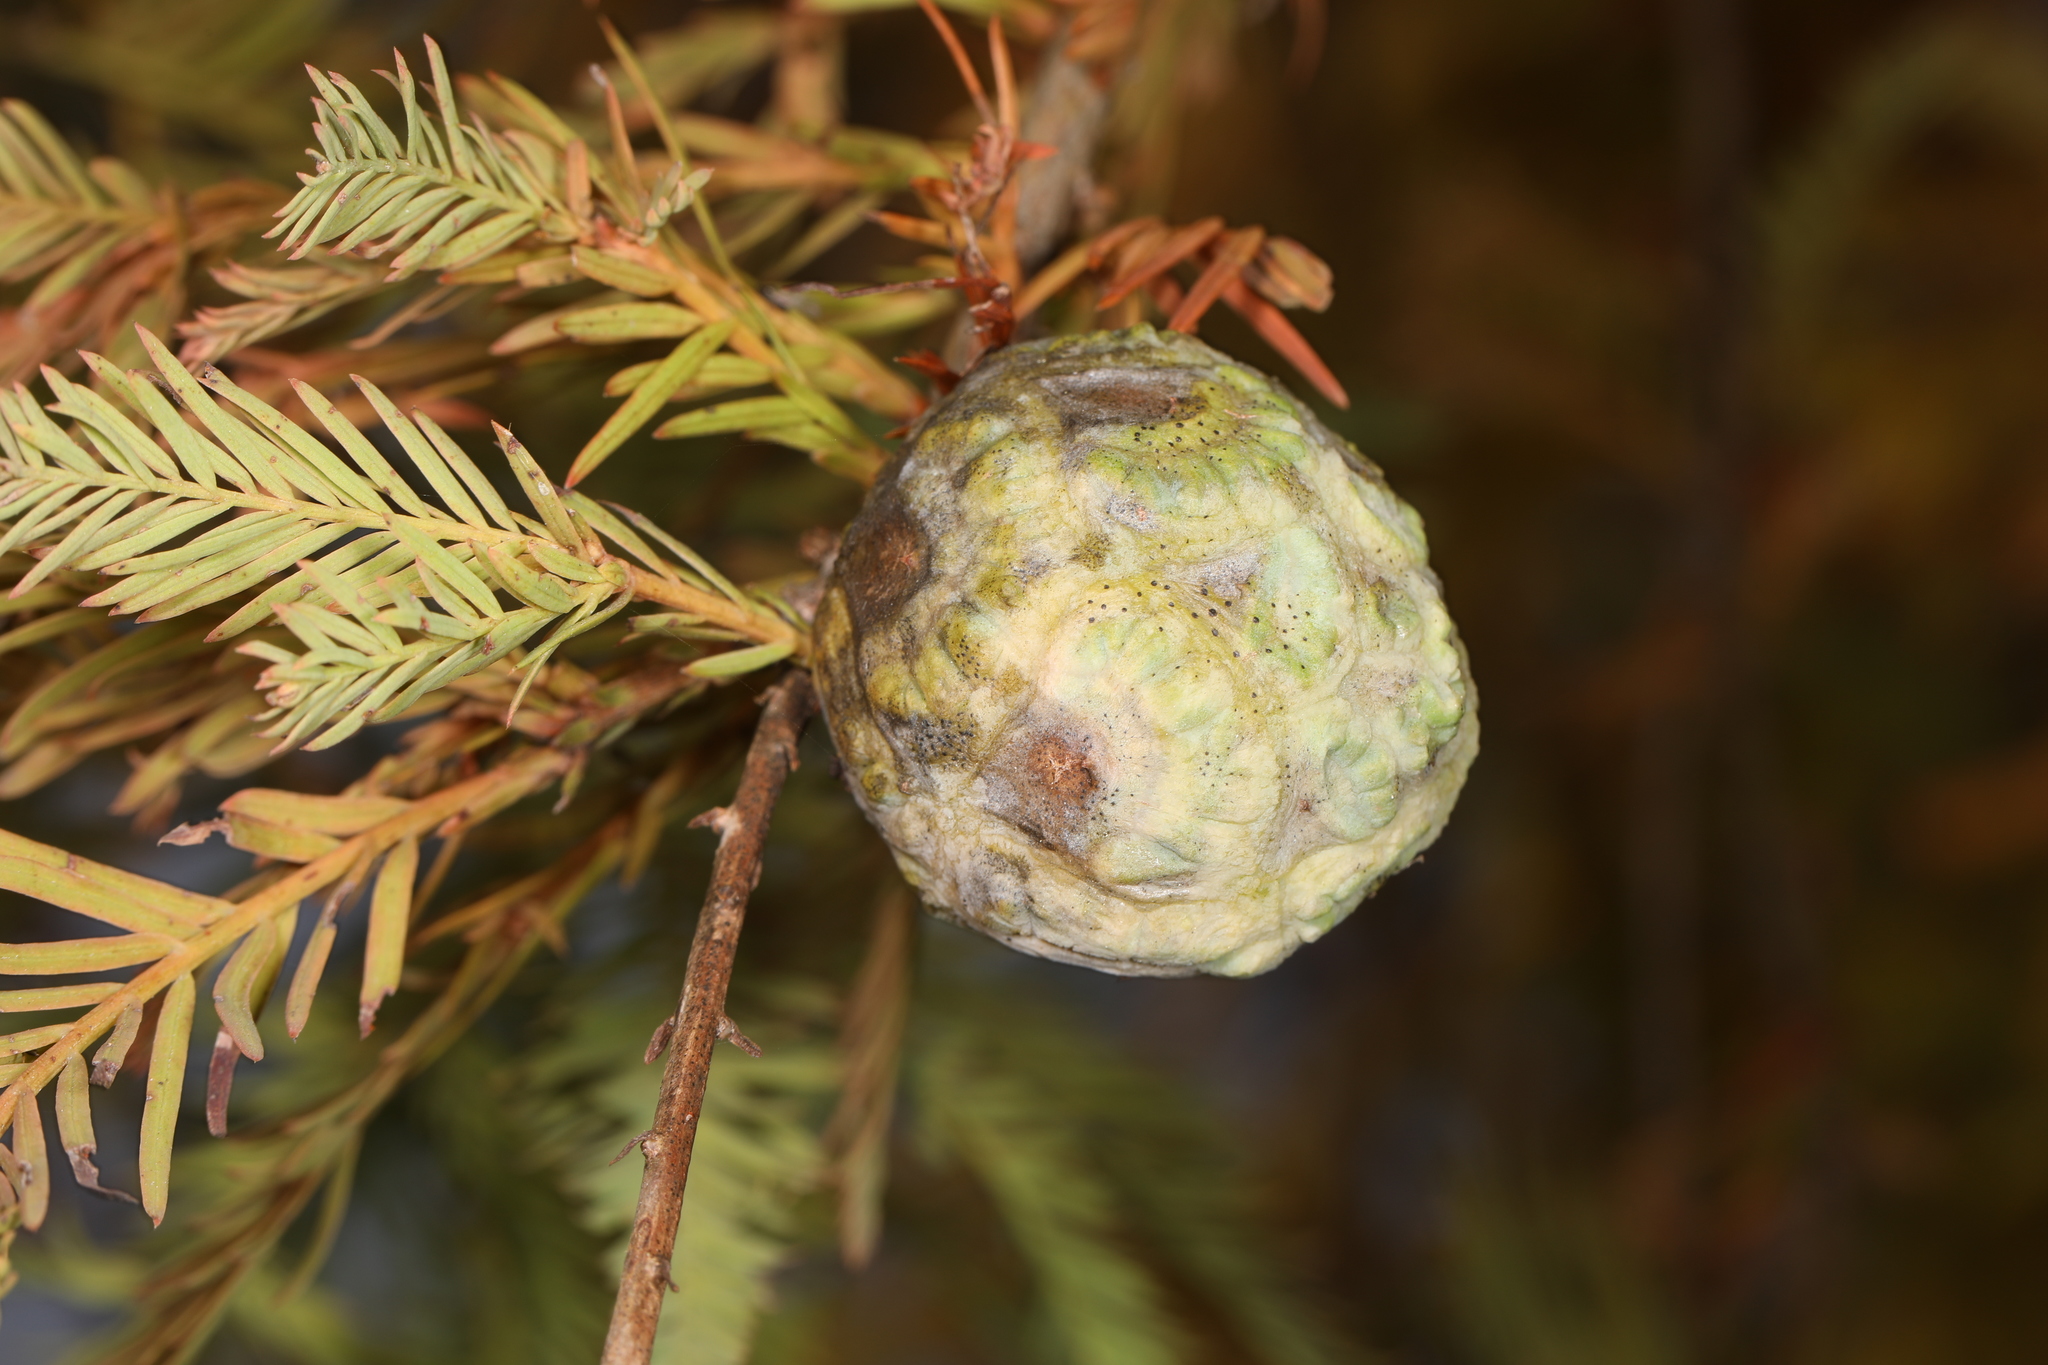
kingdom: Animalia
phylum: Arthropoda
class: Insecta
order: Diptera
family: Cecidomyiidae
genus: Taxodiomyia
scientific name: Taxodiomyia cupressiananassa
